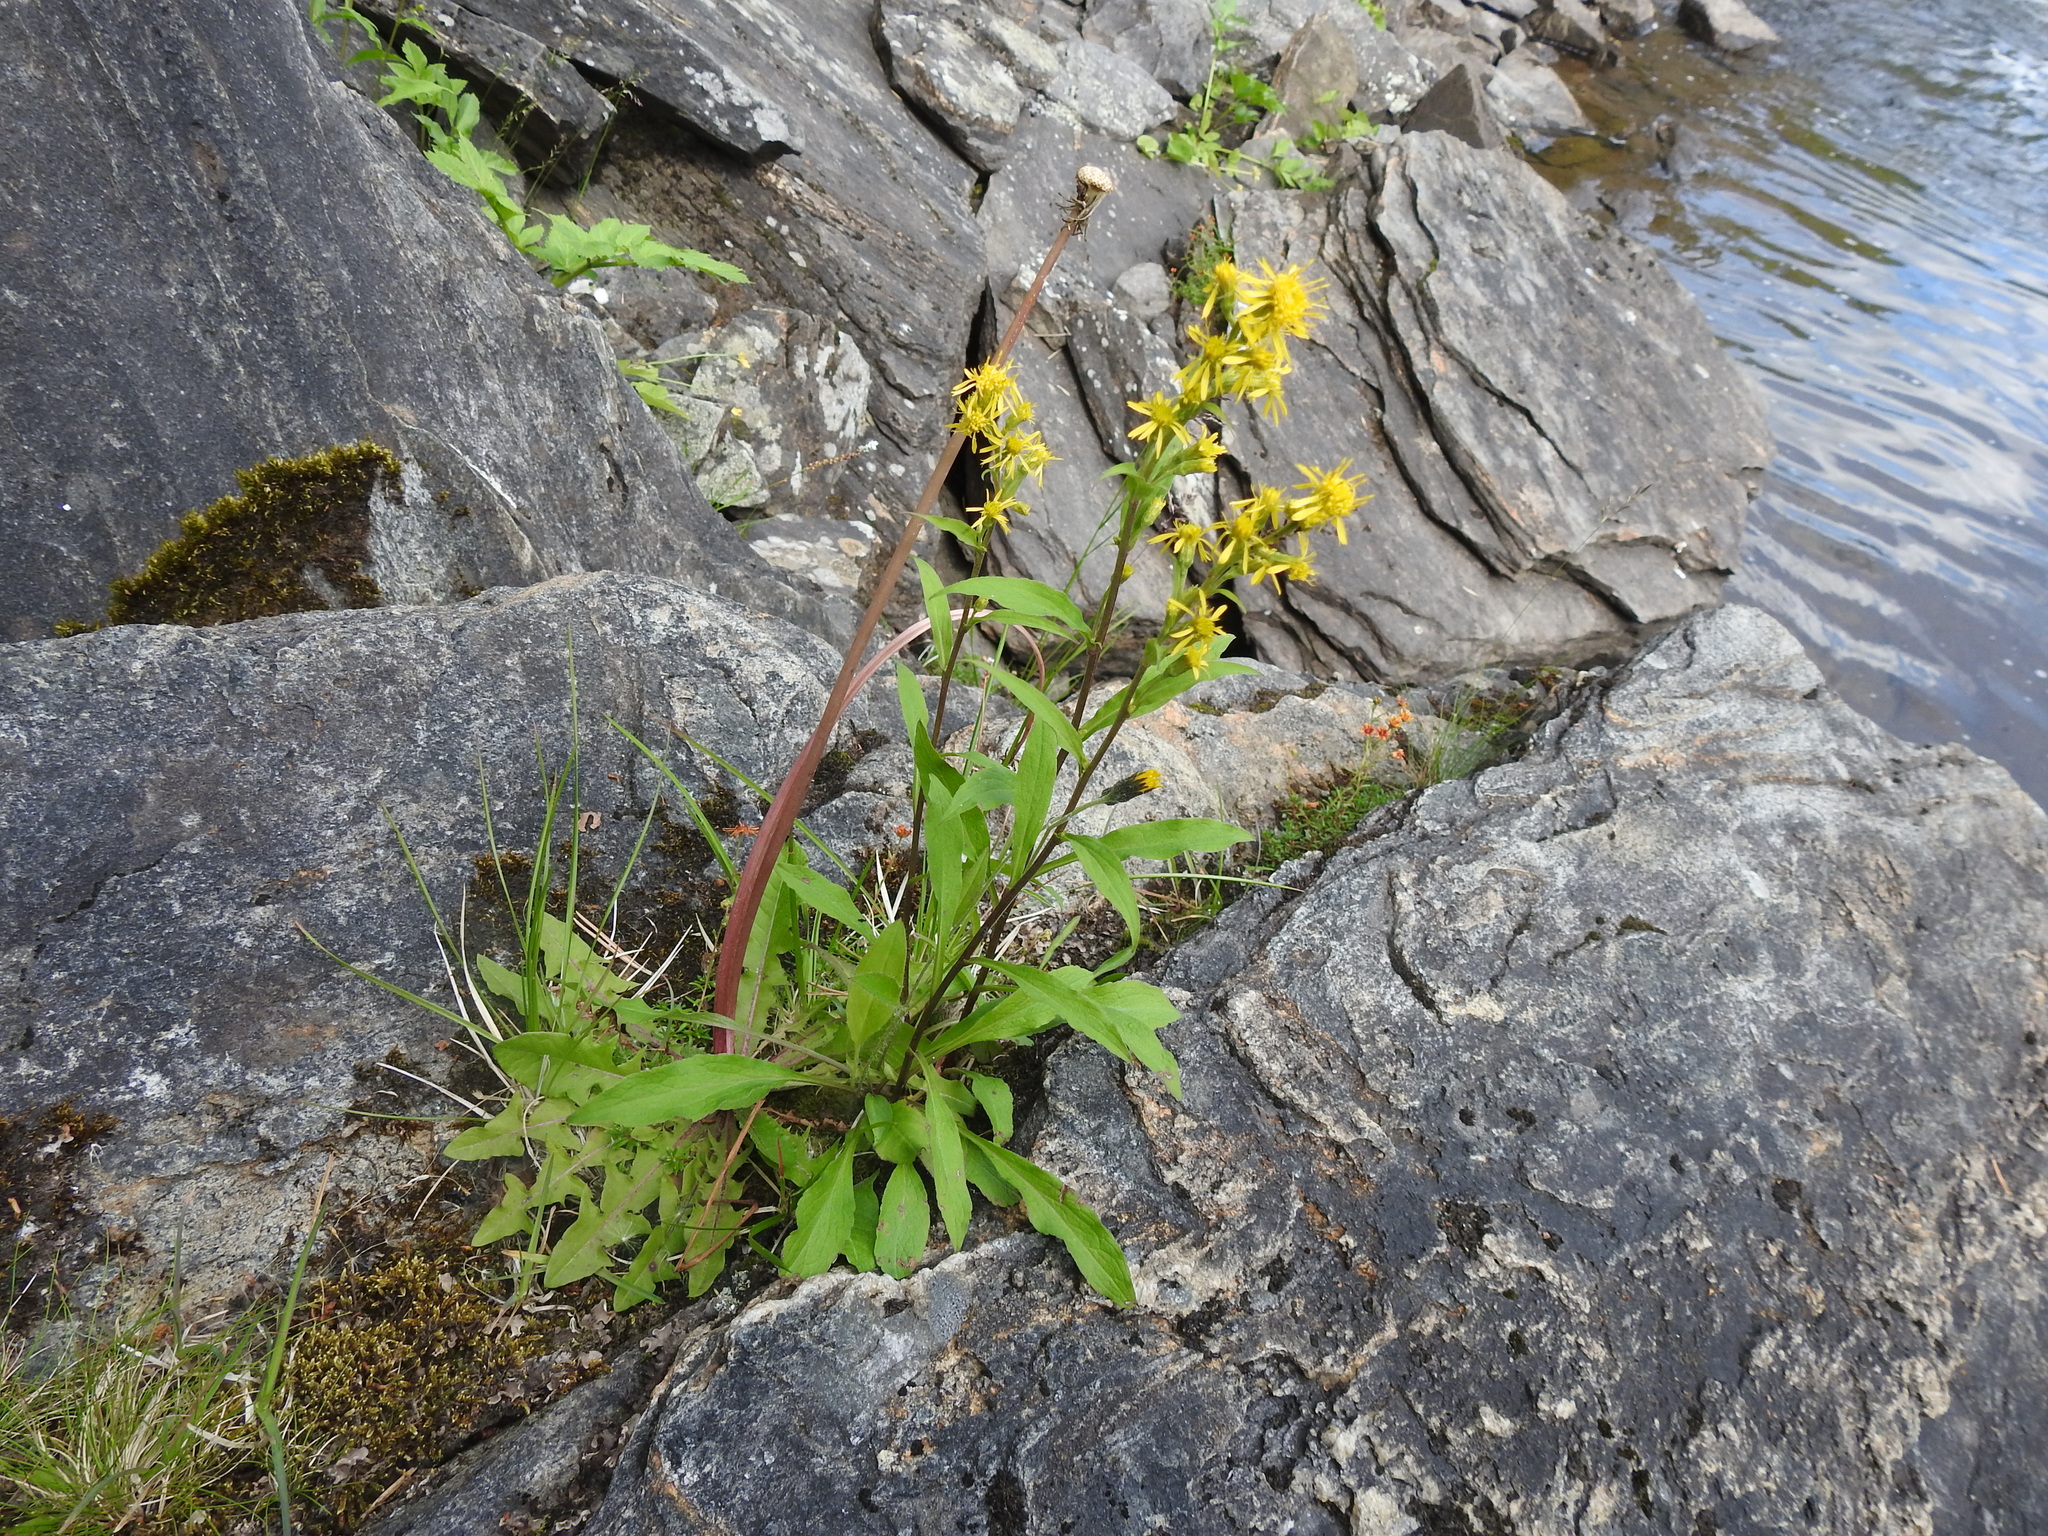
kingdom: Plantae
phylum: Tracheophyta
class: Magnoliopsida
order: Asterales
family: Asteraceae
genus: Solidago
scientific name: Solidago virgaurea
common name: Goldenrod
